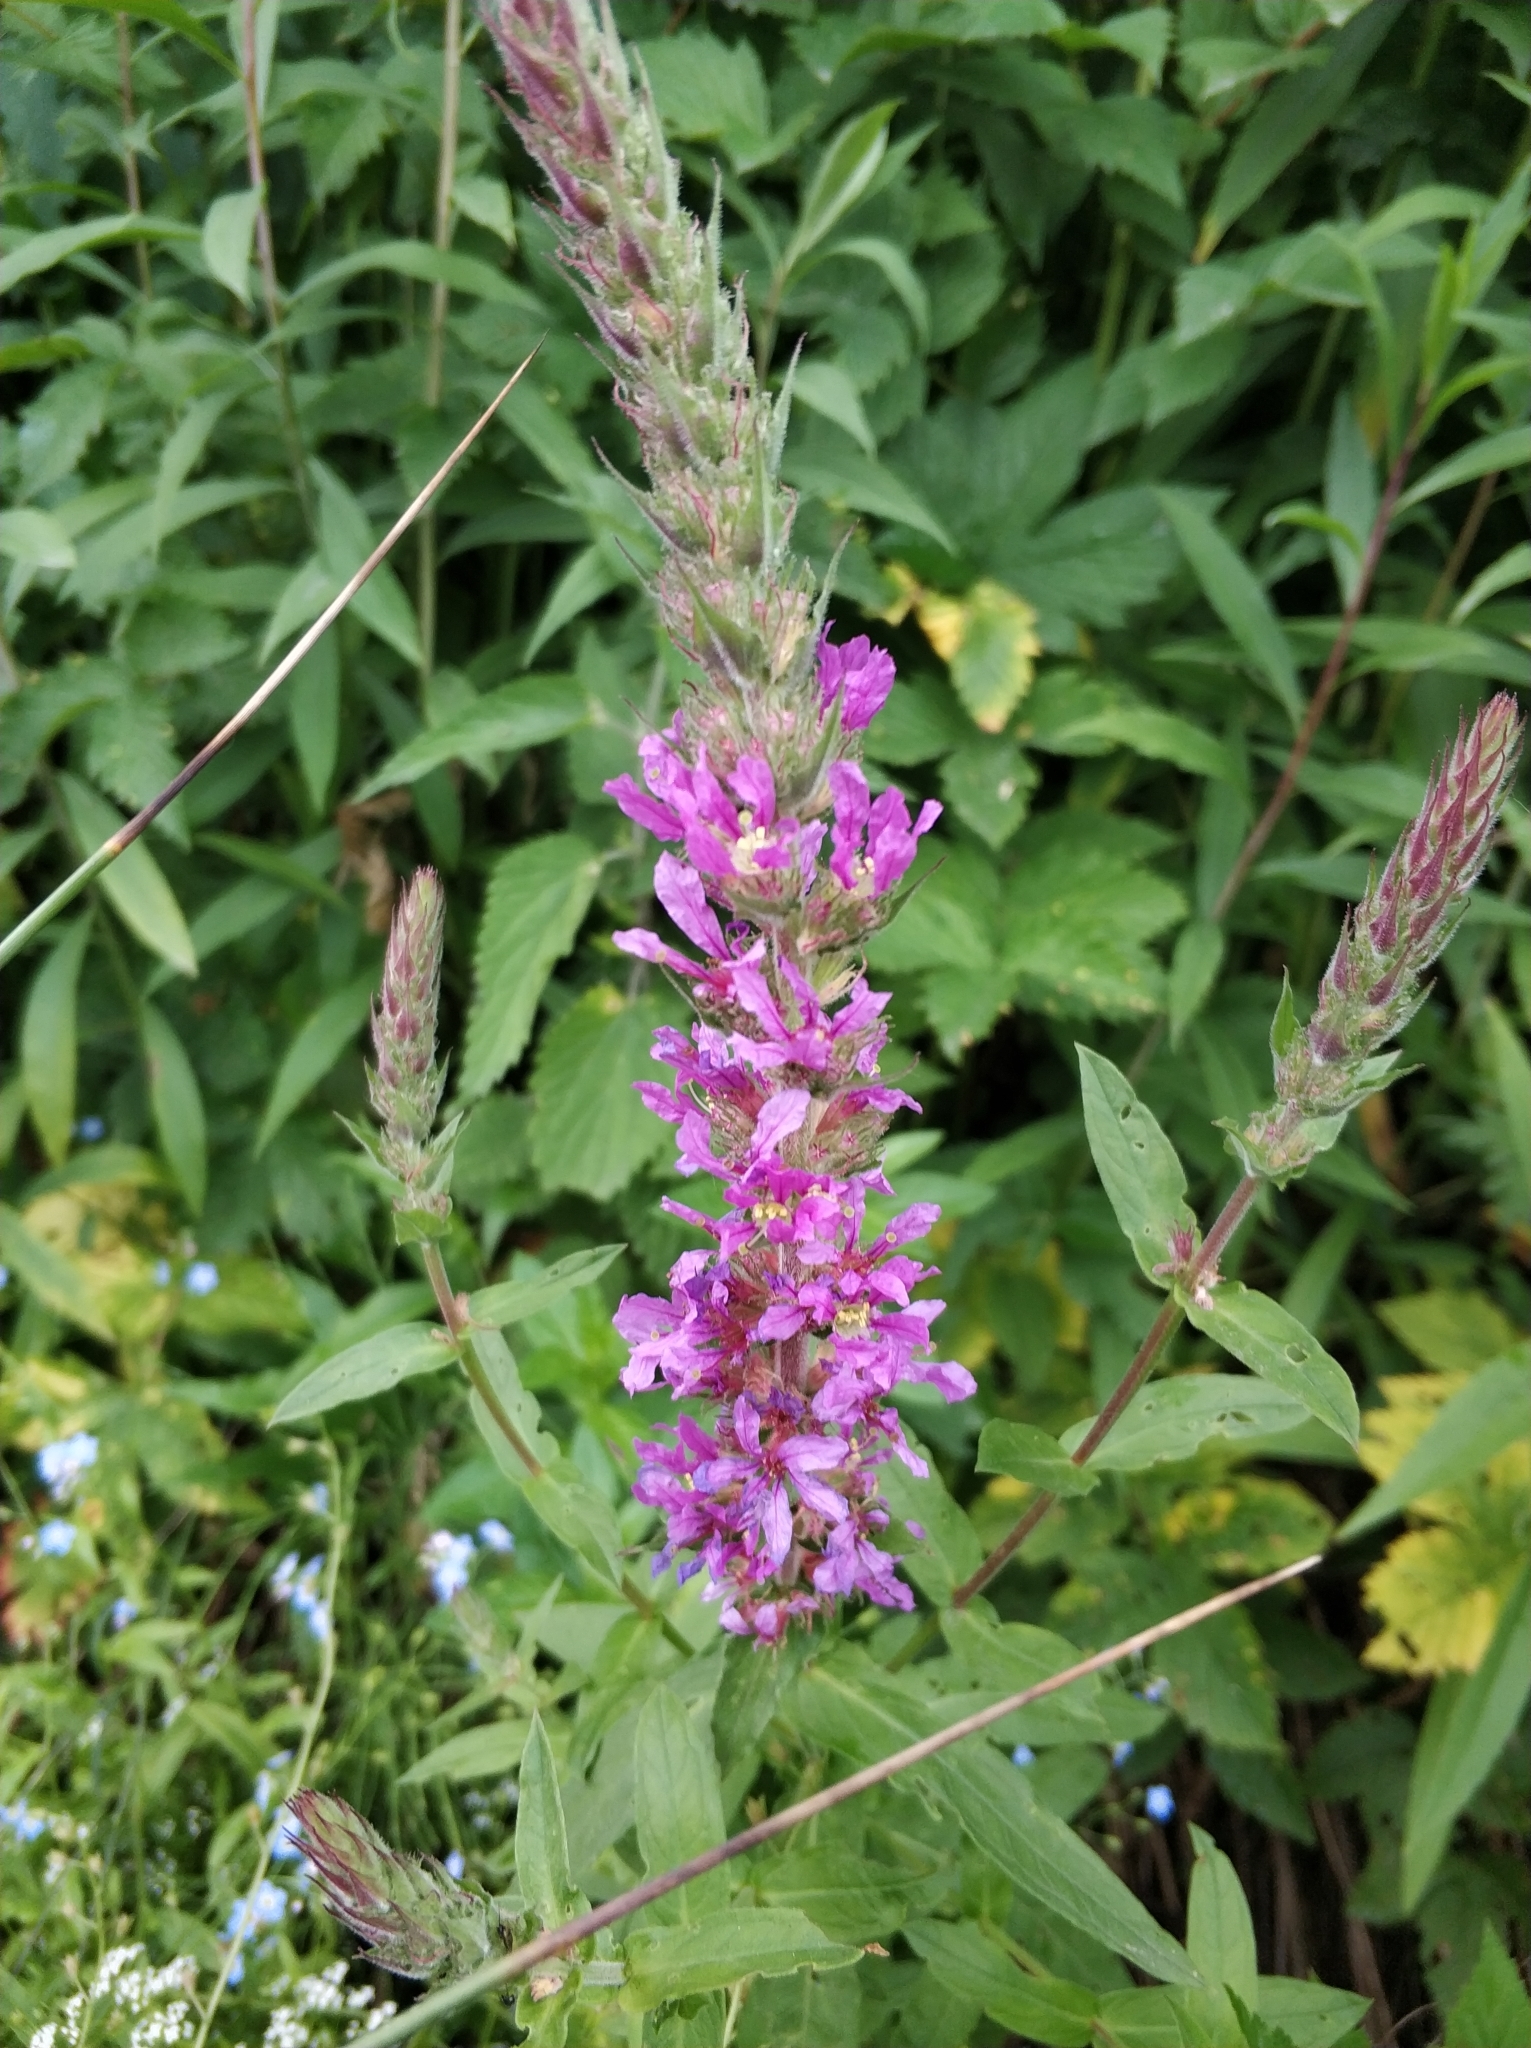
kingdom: Plantae
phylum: Tracheophyta
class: Magnoliopsida
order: Myrtales
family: Lythraceae
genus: Lythrum
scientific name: Lythrum salicaria
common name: Purple loosestrife
